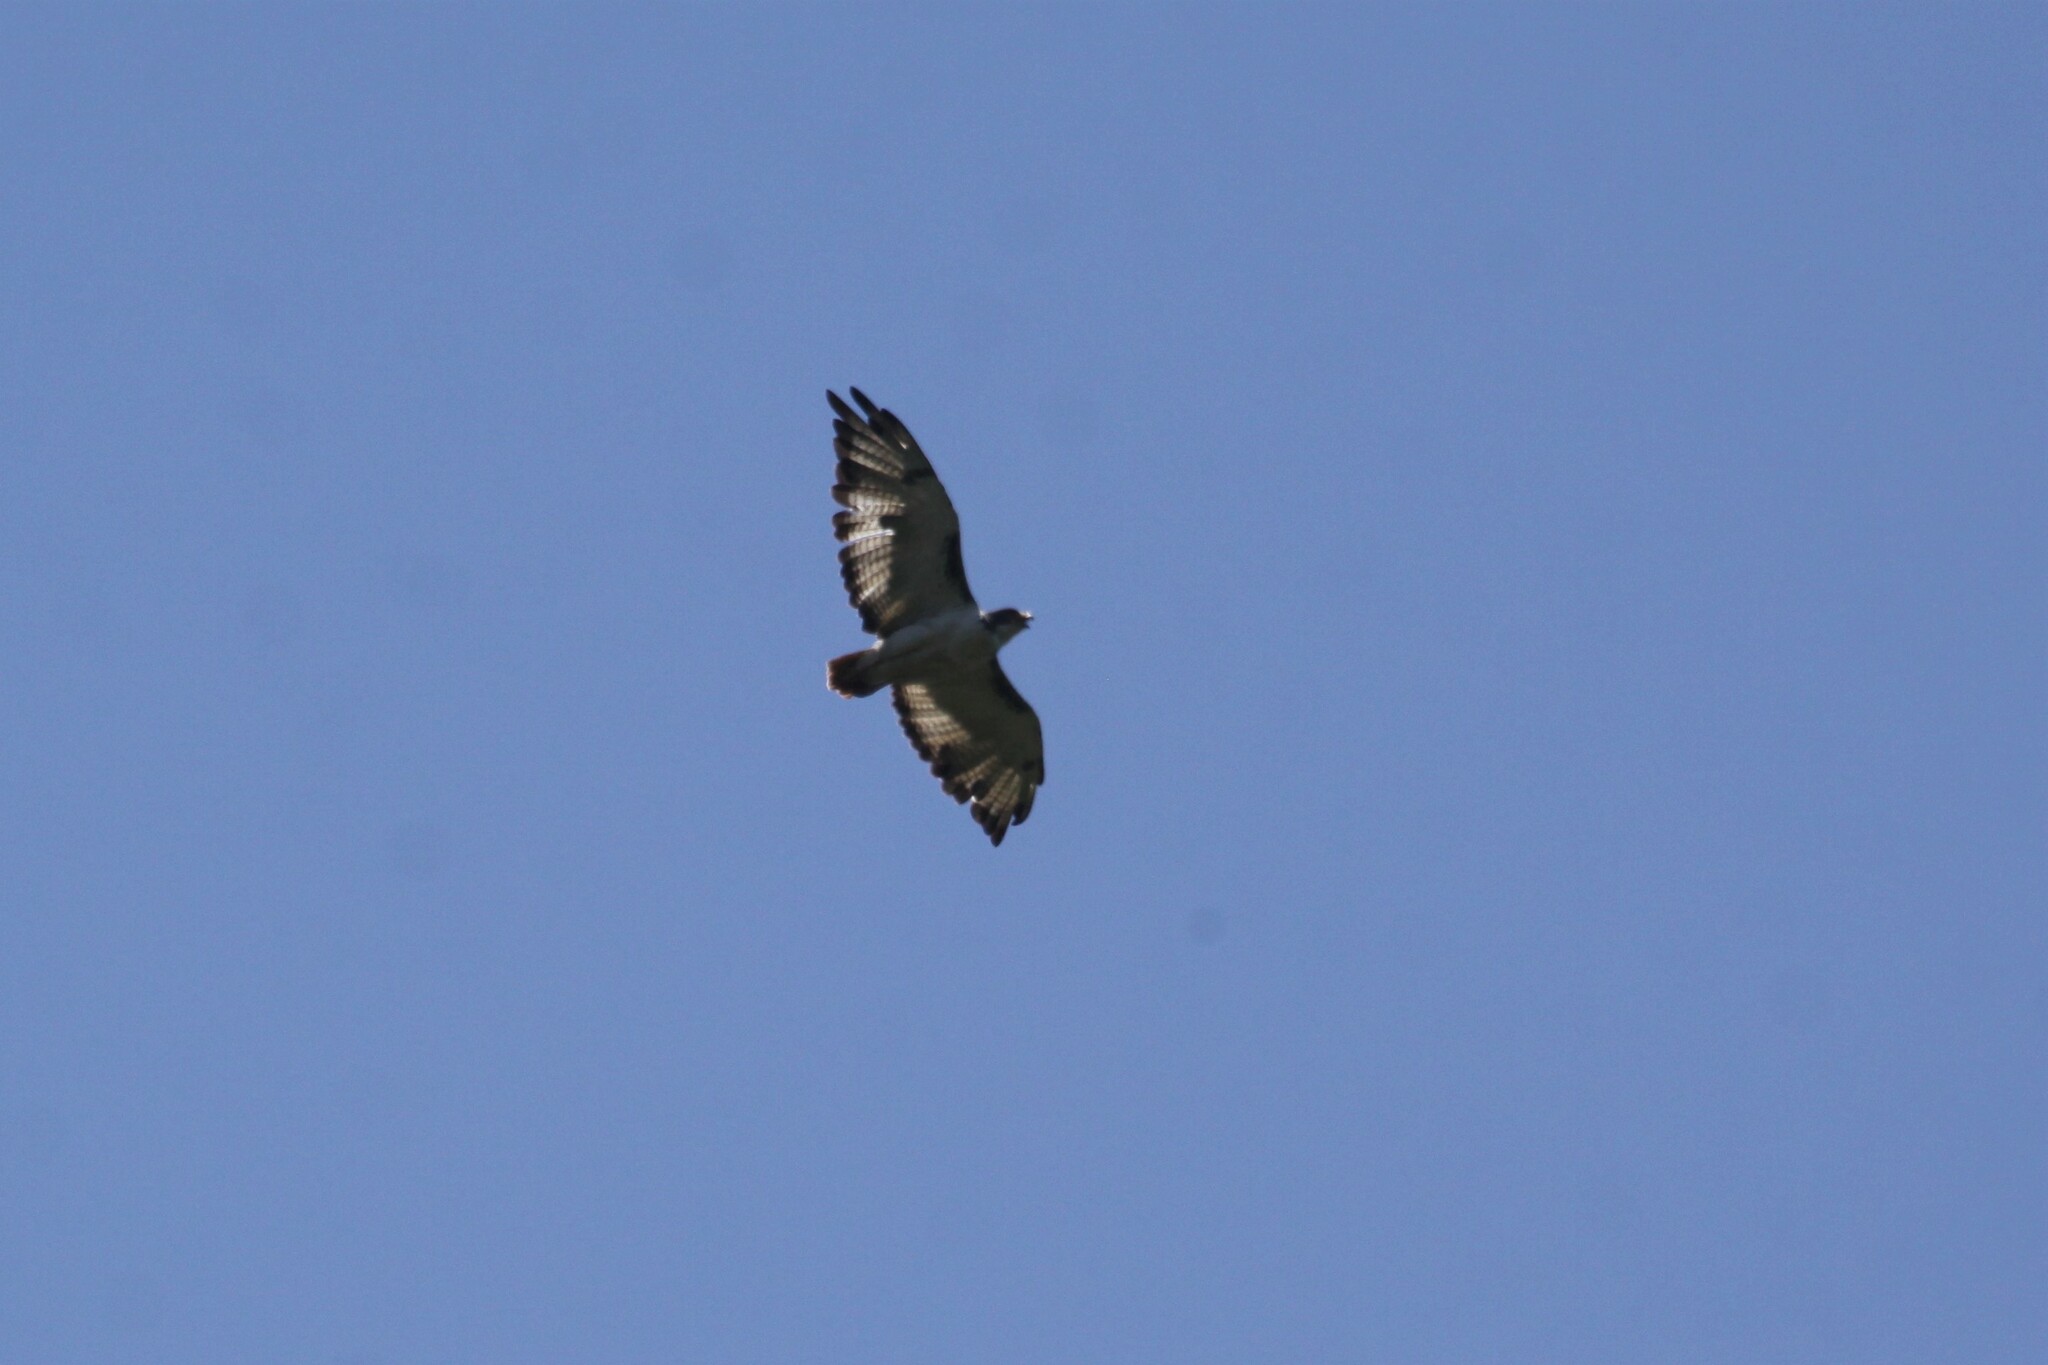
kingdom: Animalia
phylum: Chordata
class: Aves
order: Accipitriformes
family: Accipitridae
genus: Buteo
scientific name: Buteo augur
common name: Augur buzzard
